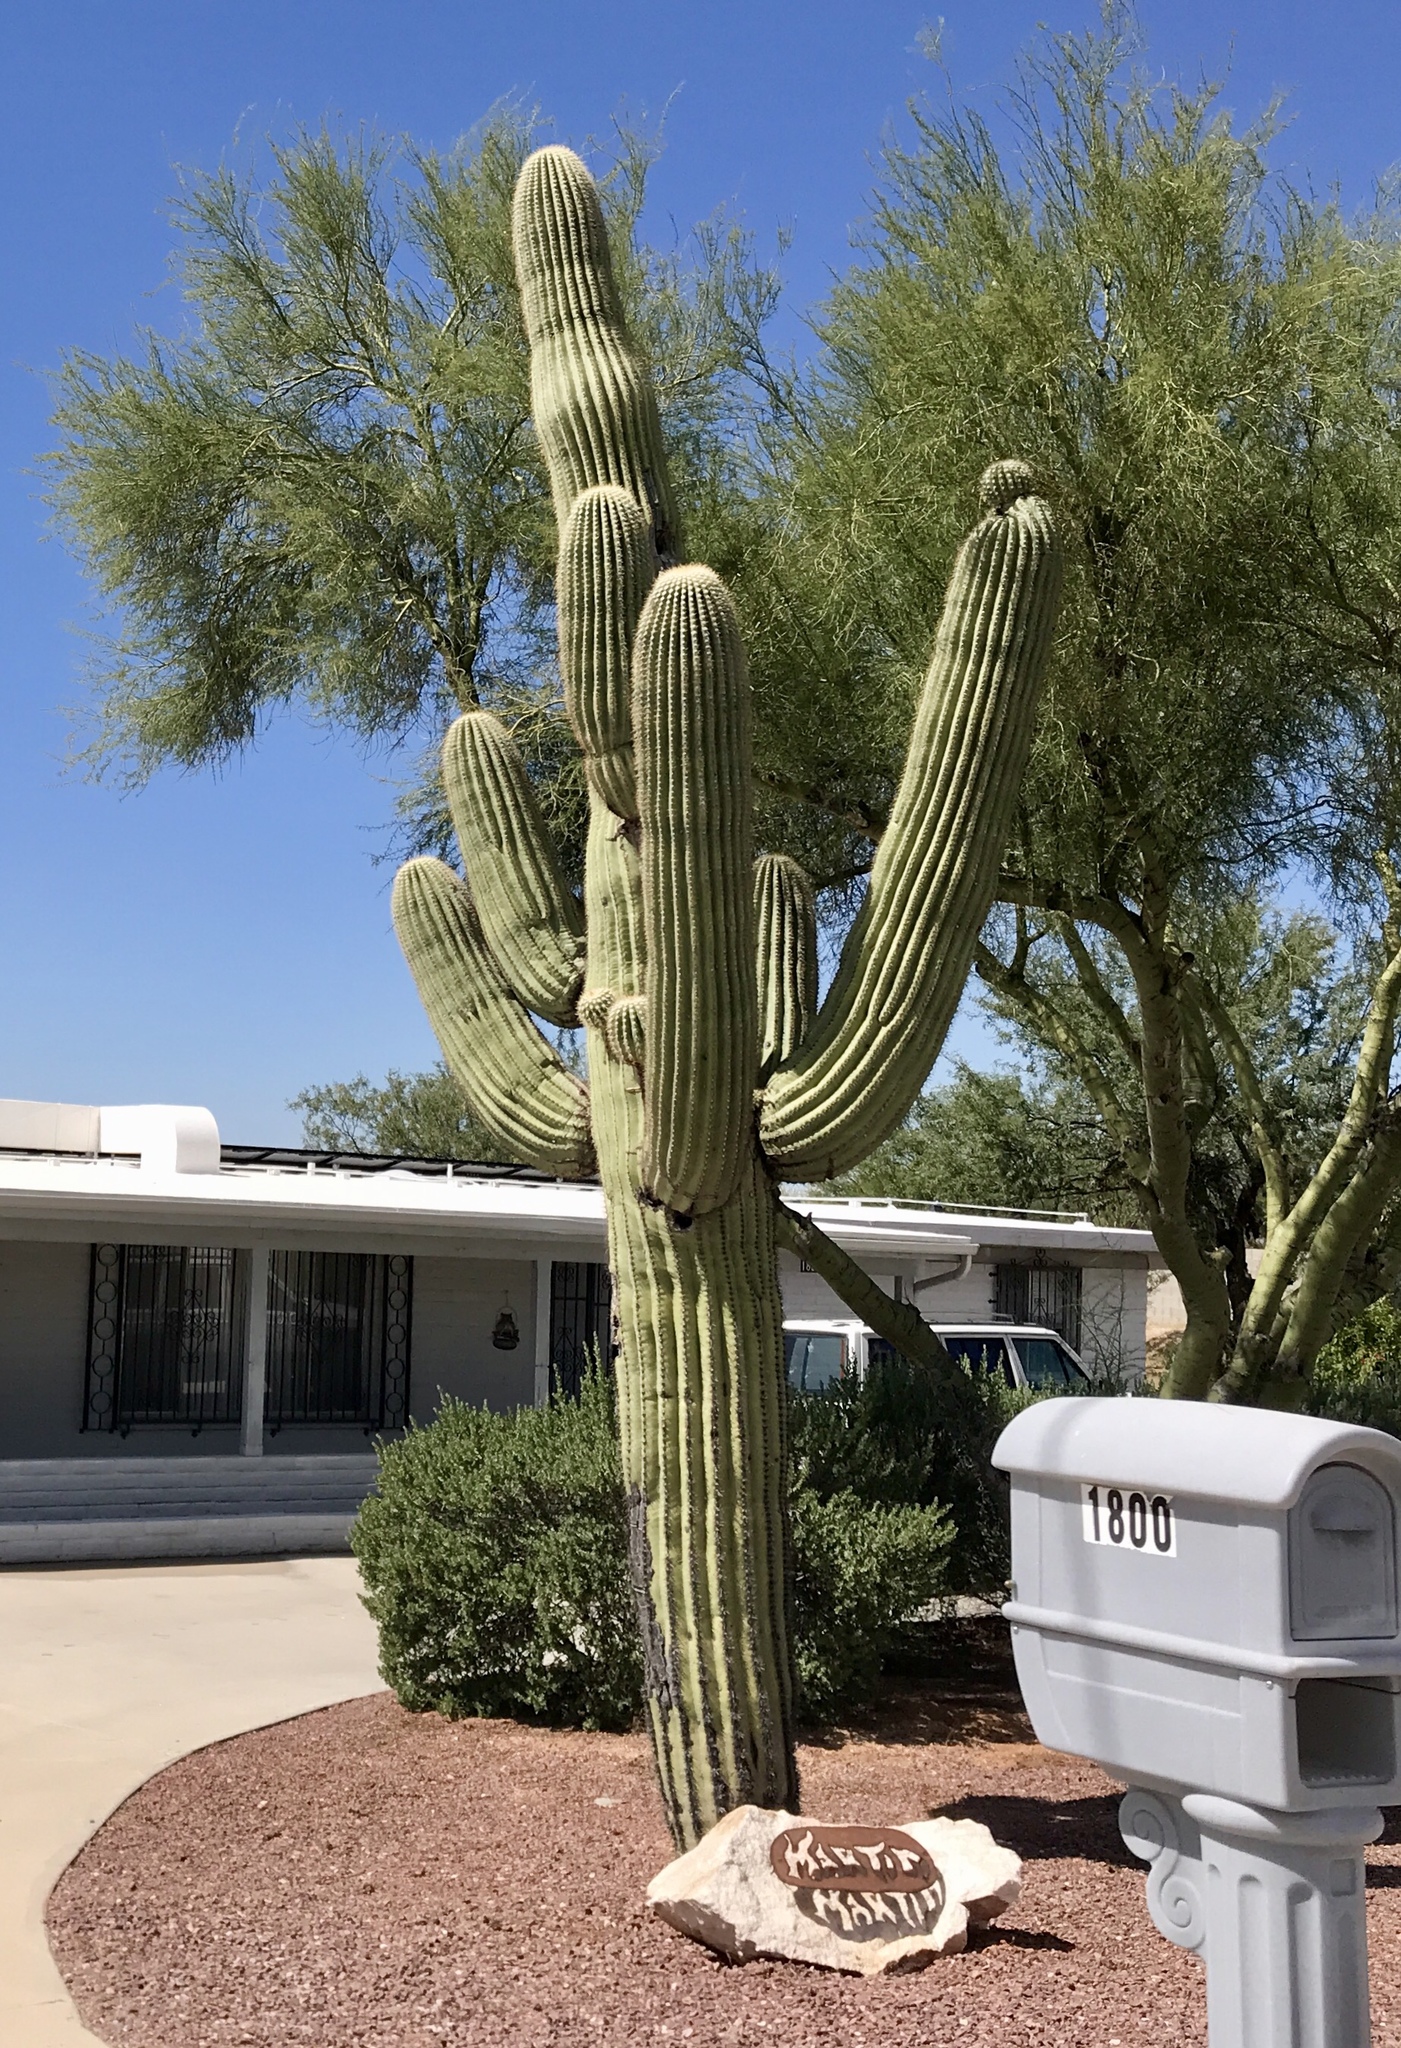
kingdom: Plantae
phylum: Tracheophyta
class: Magnoliopsida
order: Caryophyllales
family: Cactaceae
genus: Carnegiea
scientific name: Carnegiea gigantea
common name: Saguaro
